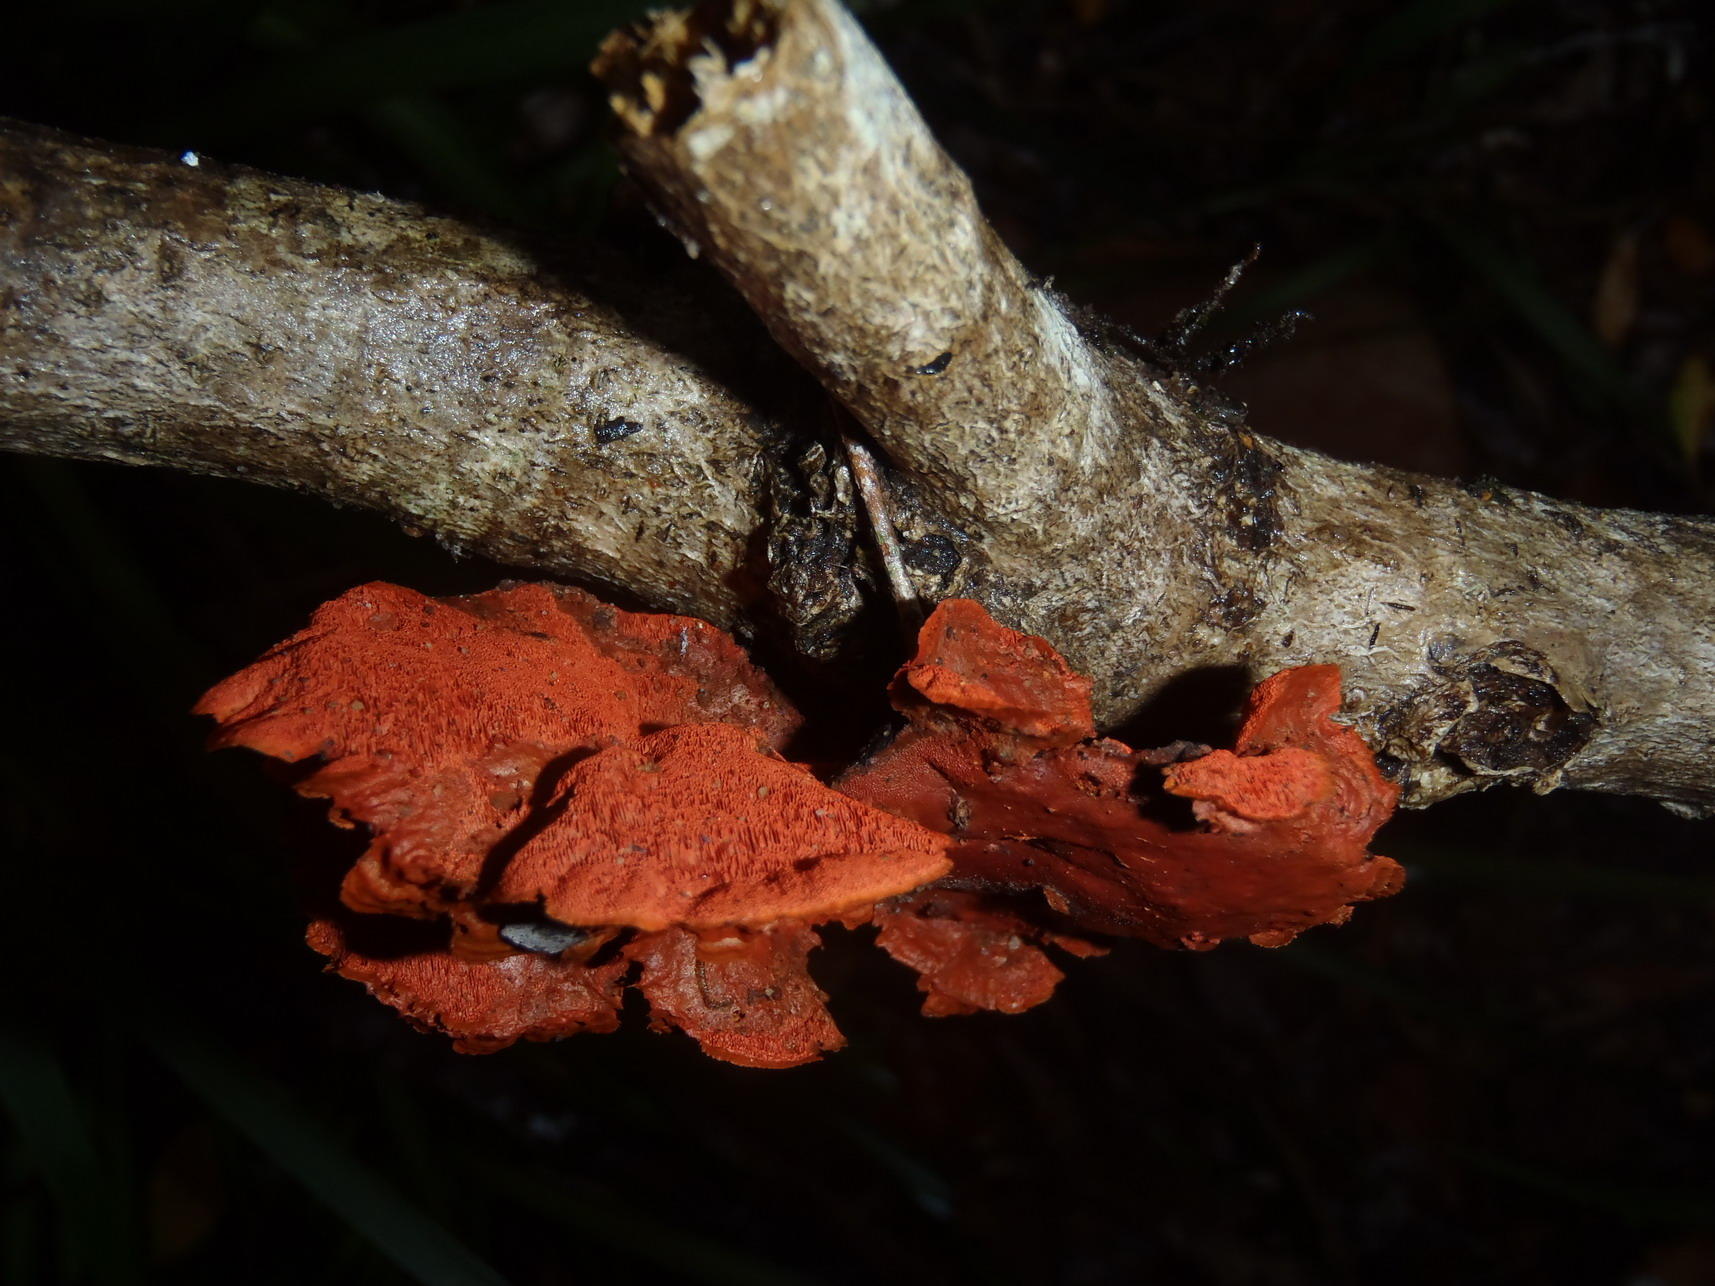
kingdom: Fungi
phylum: Basidiomycota
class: Agaricomycetes
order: Polyporales
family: Polyporaceae
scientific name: Polyporaceae
